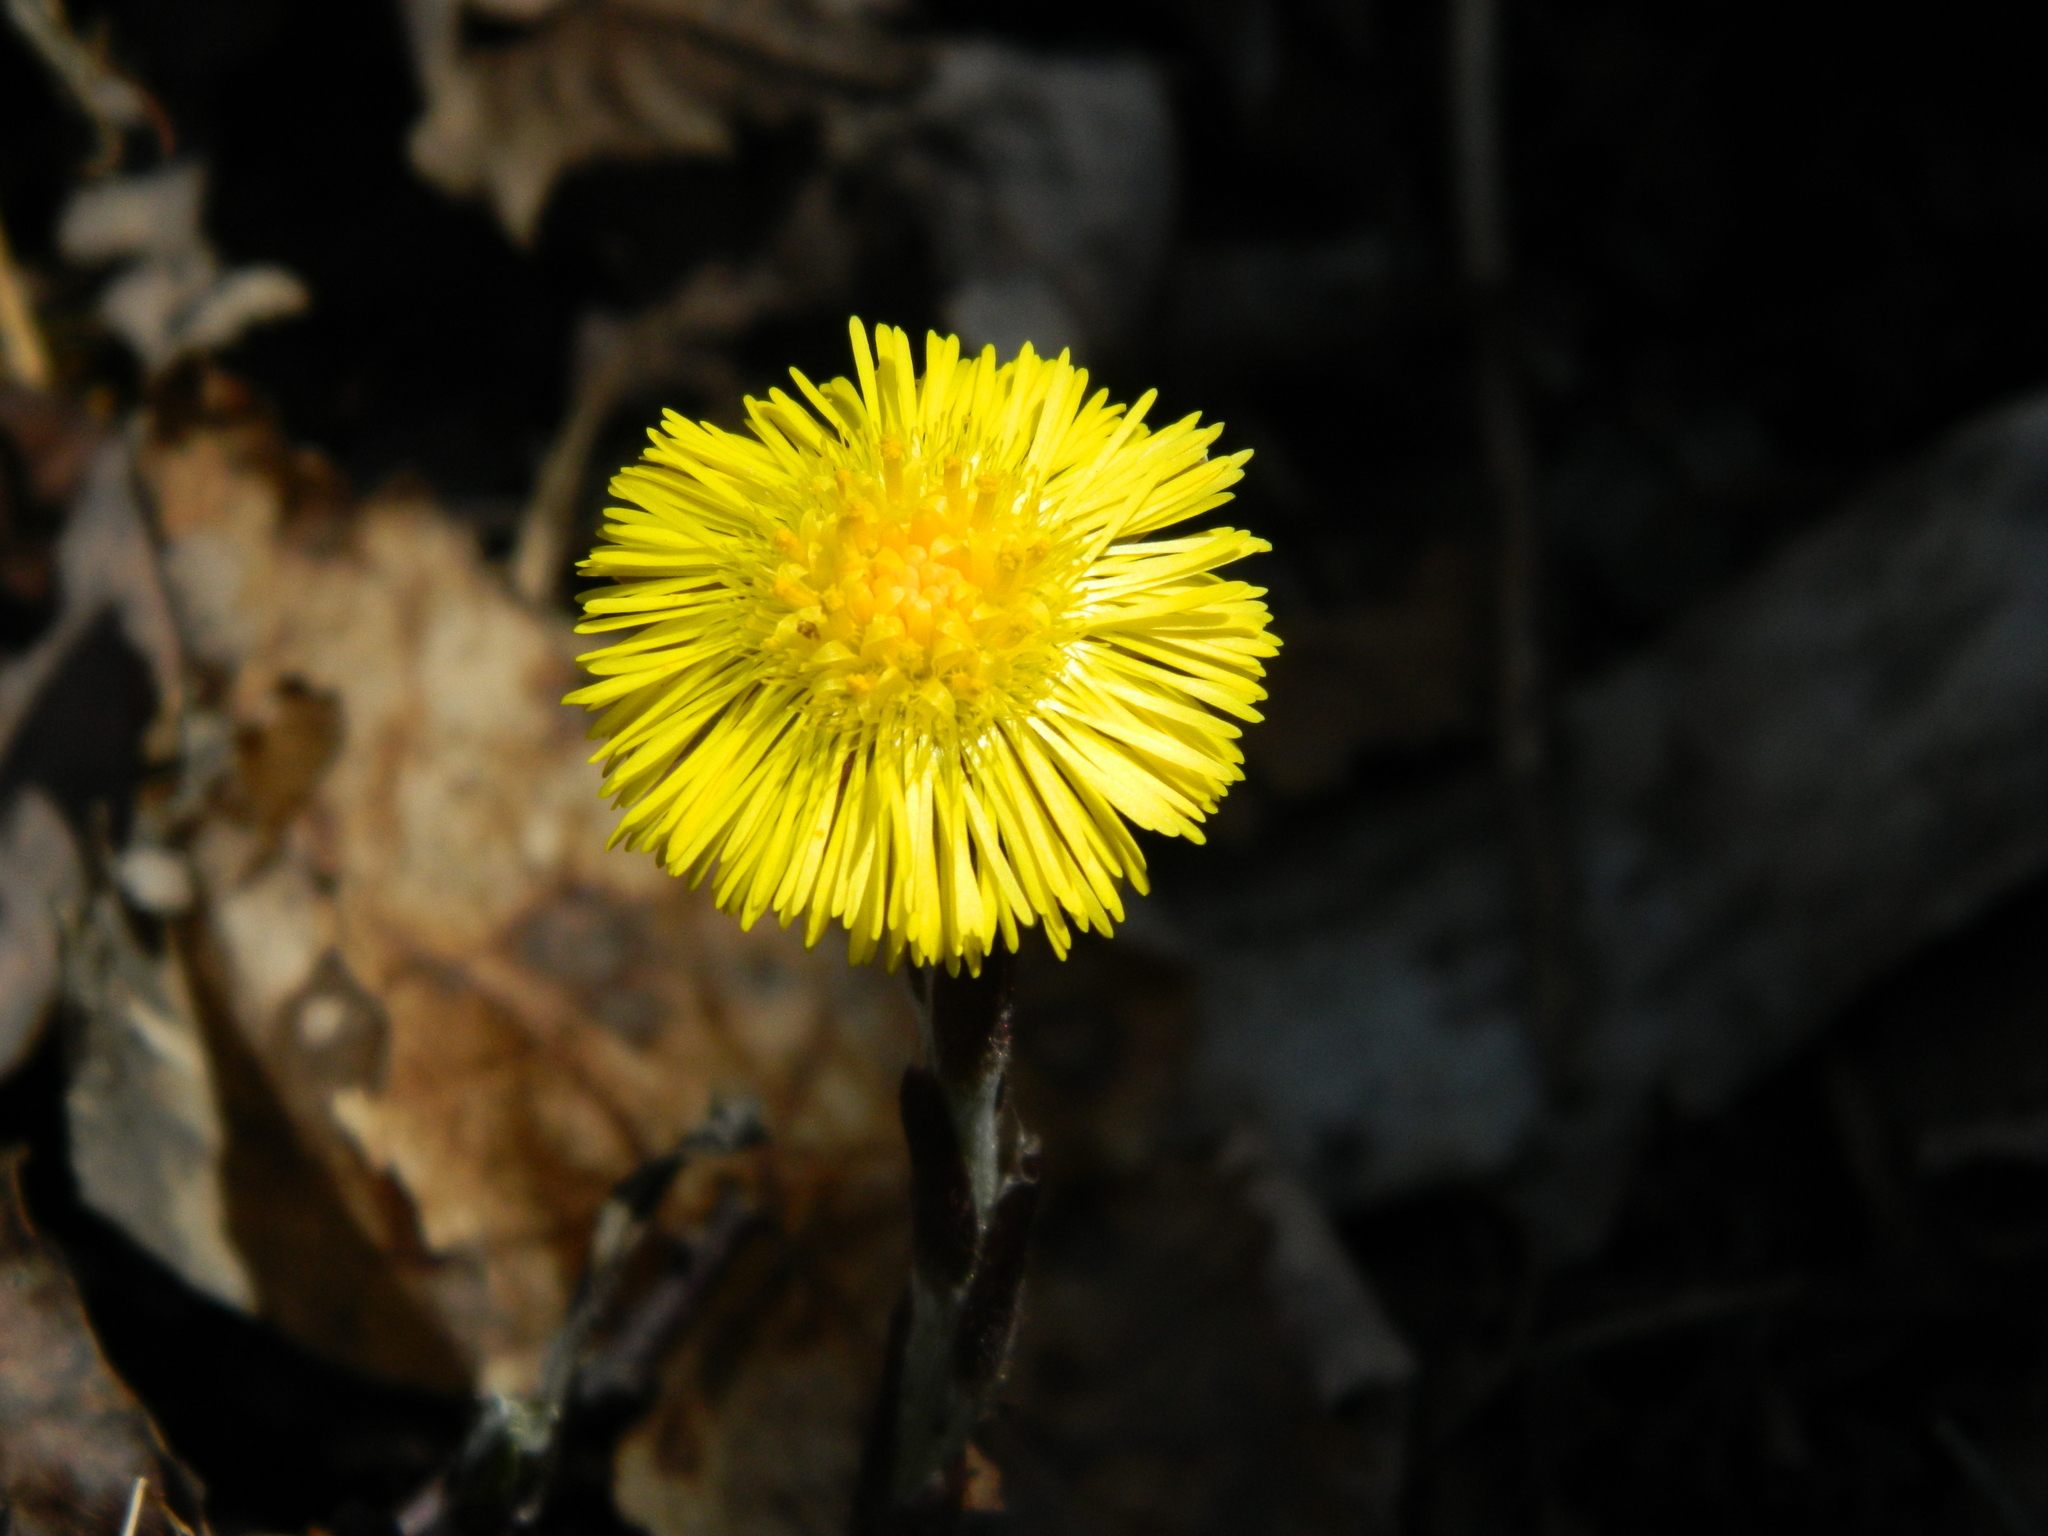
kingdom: Plantae
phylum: Tracheophyta
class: Magnoliopsida
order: Asterales
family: Asteraceae
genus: Tussilago
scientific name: Tussilago farfara
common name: Coltsfoot
